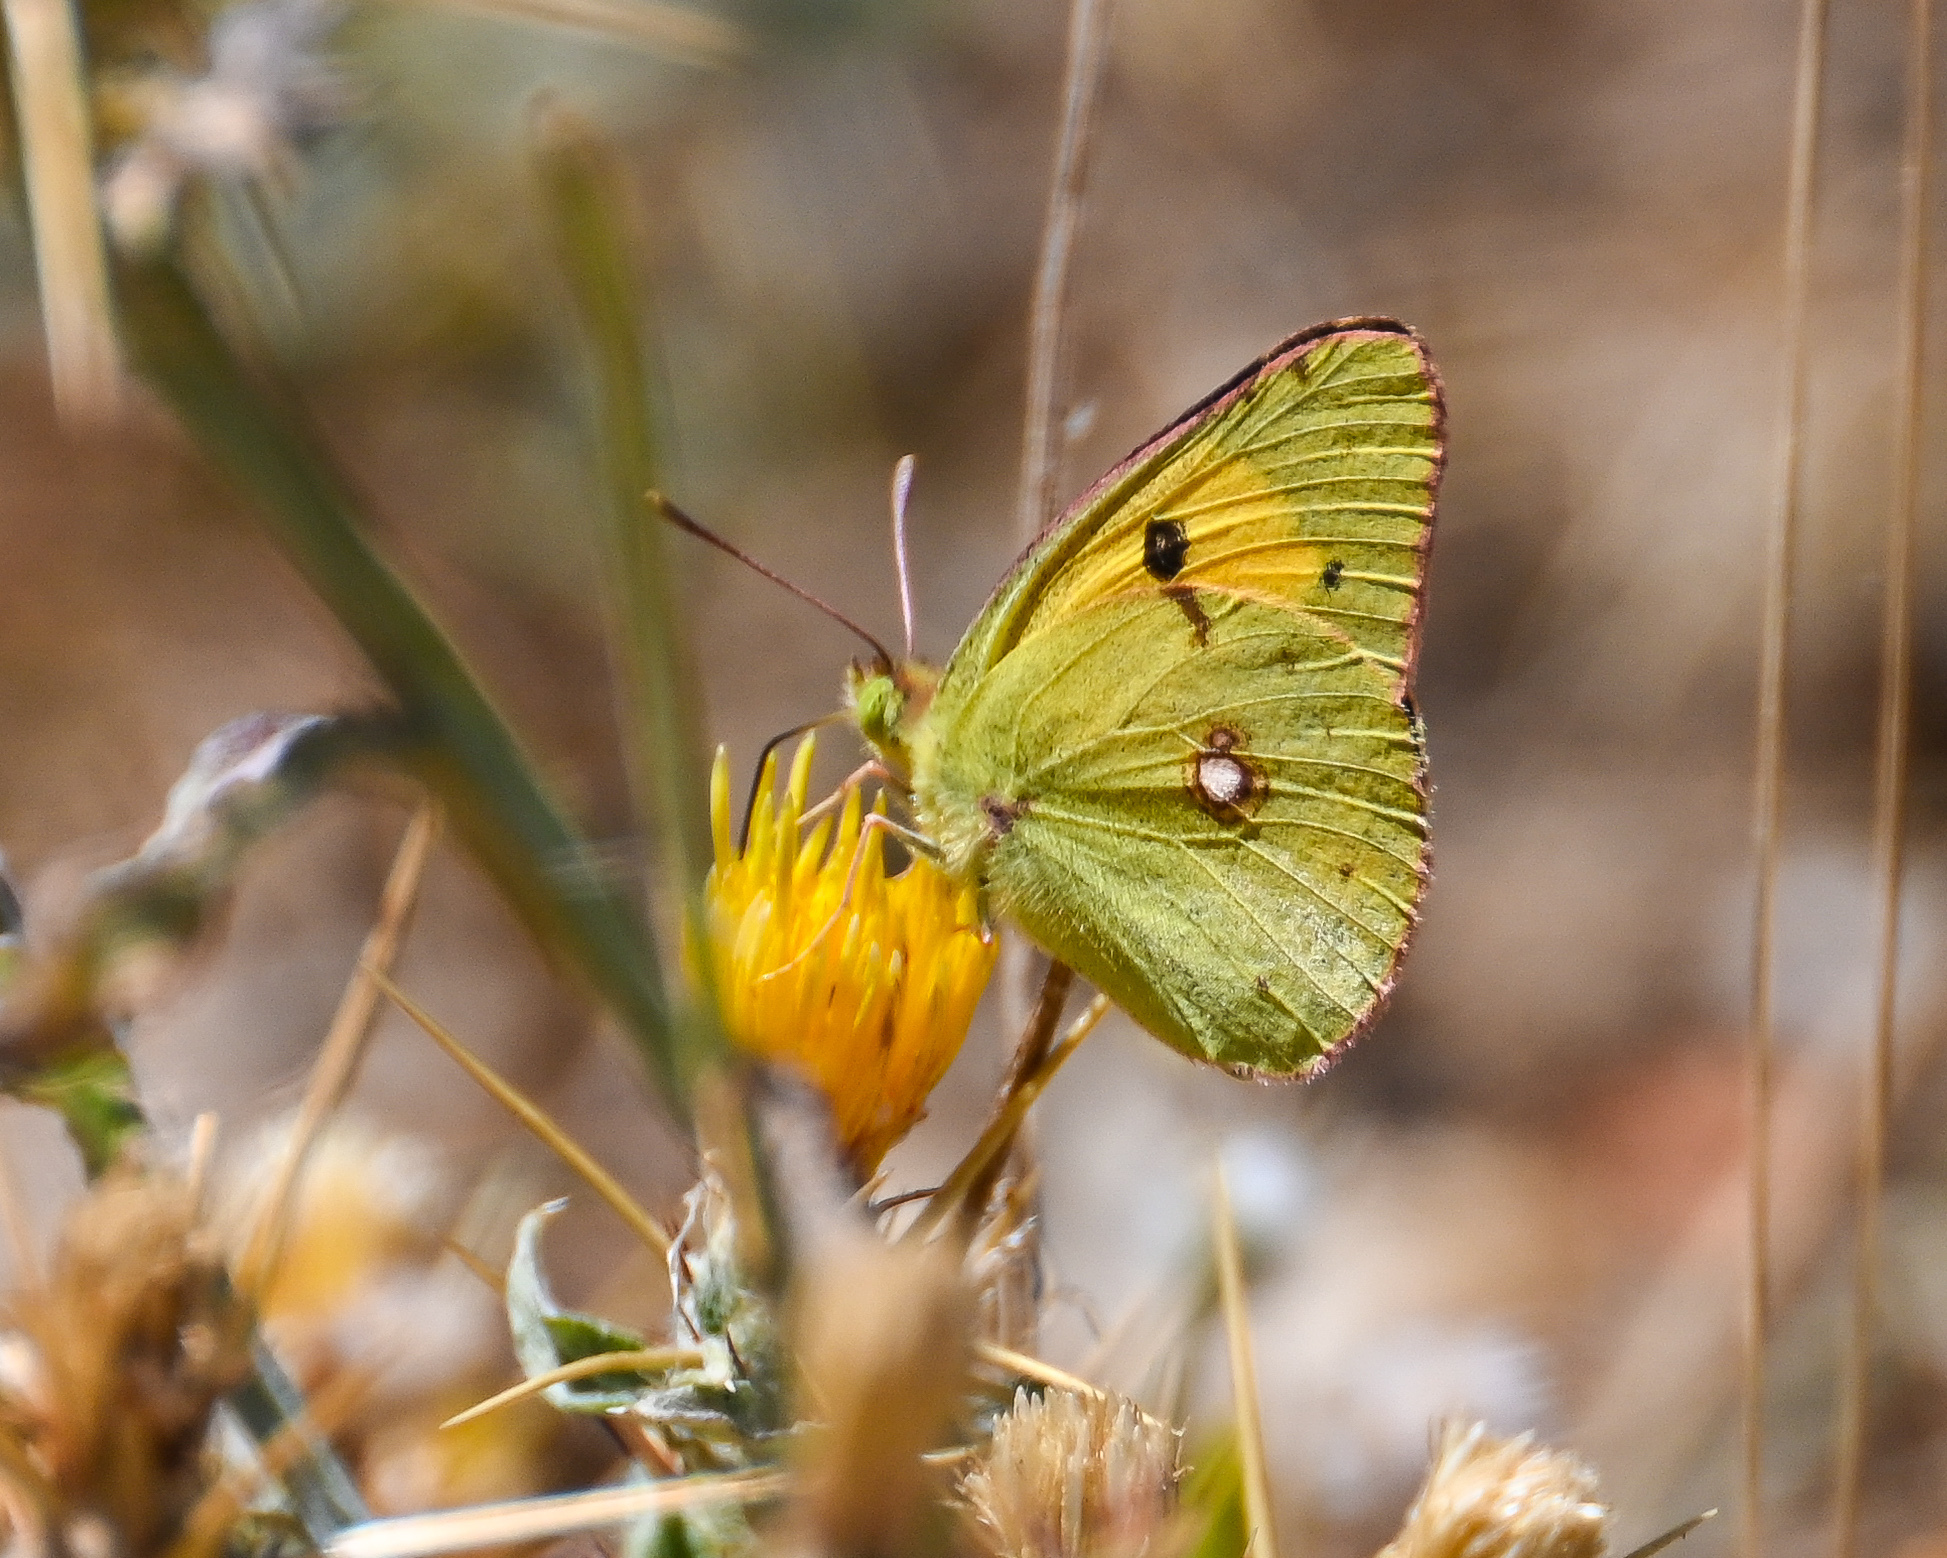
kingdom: Animalia
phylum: Arthropoda
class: Insecta
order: Lepidoptera
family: Pieridae
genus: Colias
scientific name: Colias croceus
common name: Clouded yellow
